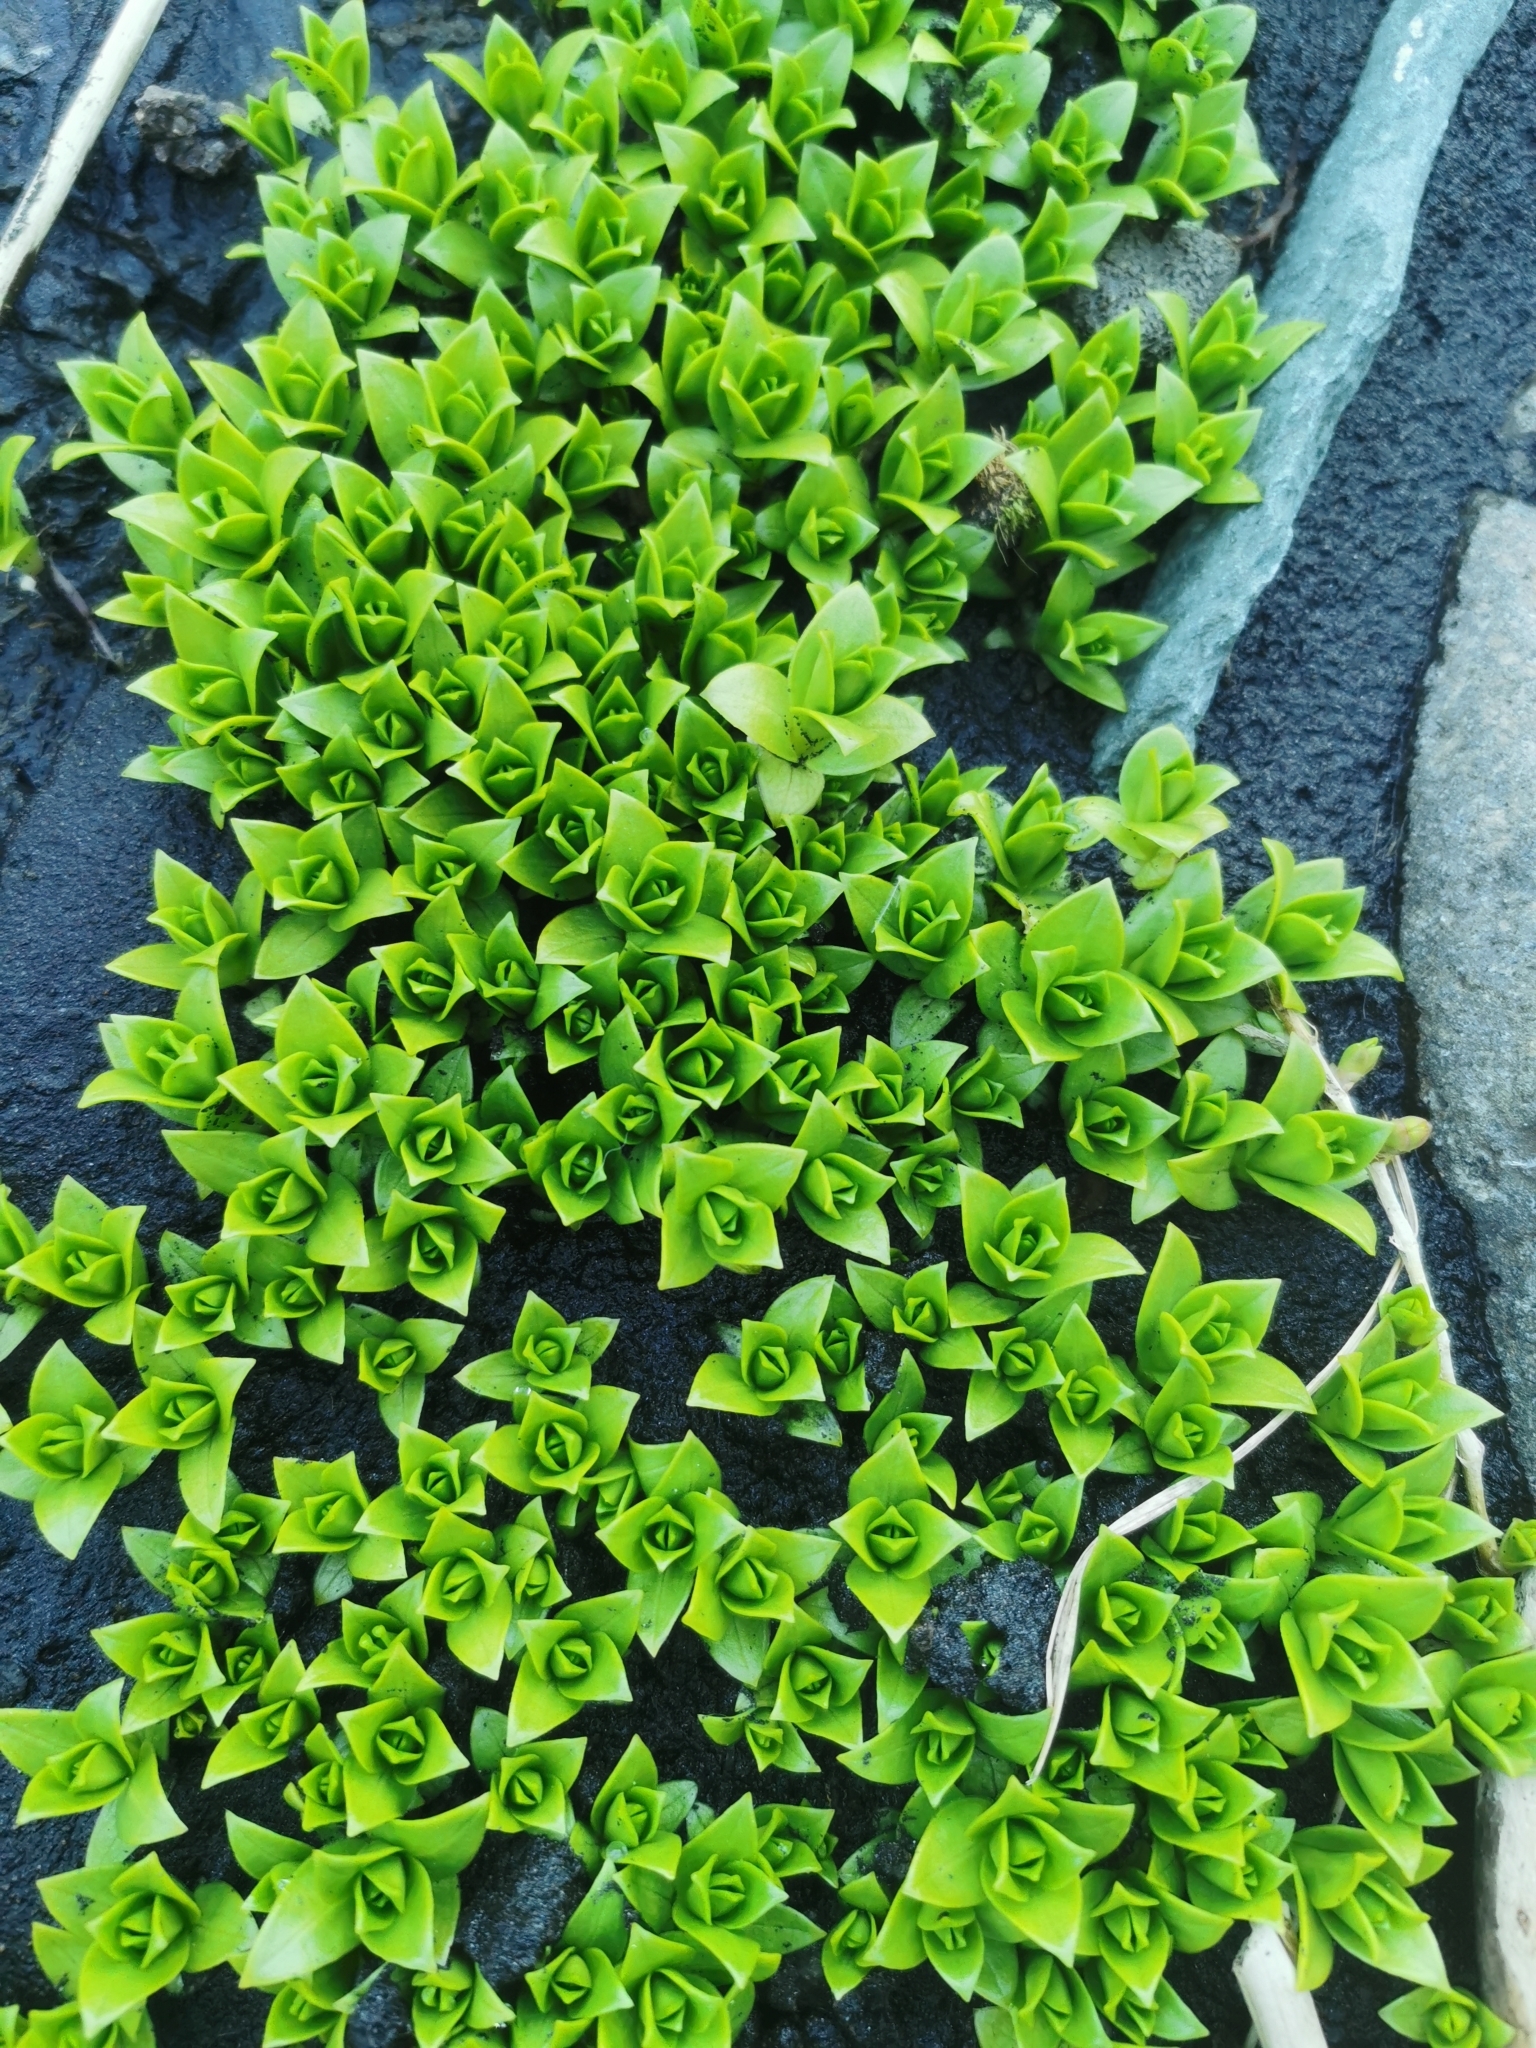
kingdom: Plantae
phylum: Tracheophyta
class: Magnoliopsida
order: Caryophyllales
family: Caryophyllaceae
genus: Honckenya
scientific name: Honckenya peploides
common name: Sea sandwort
